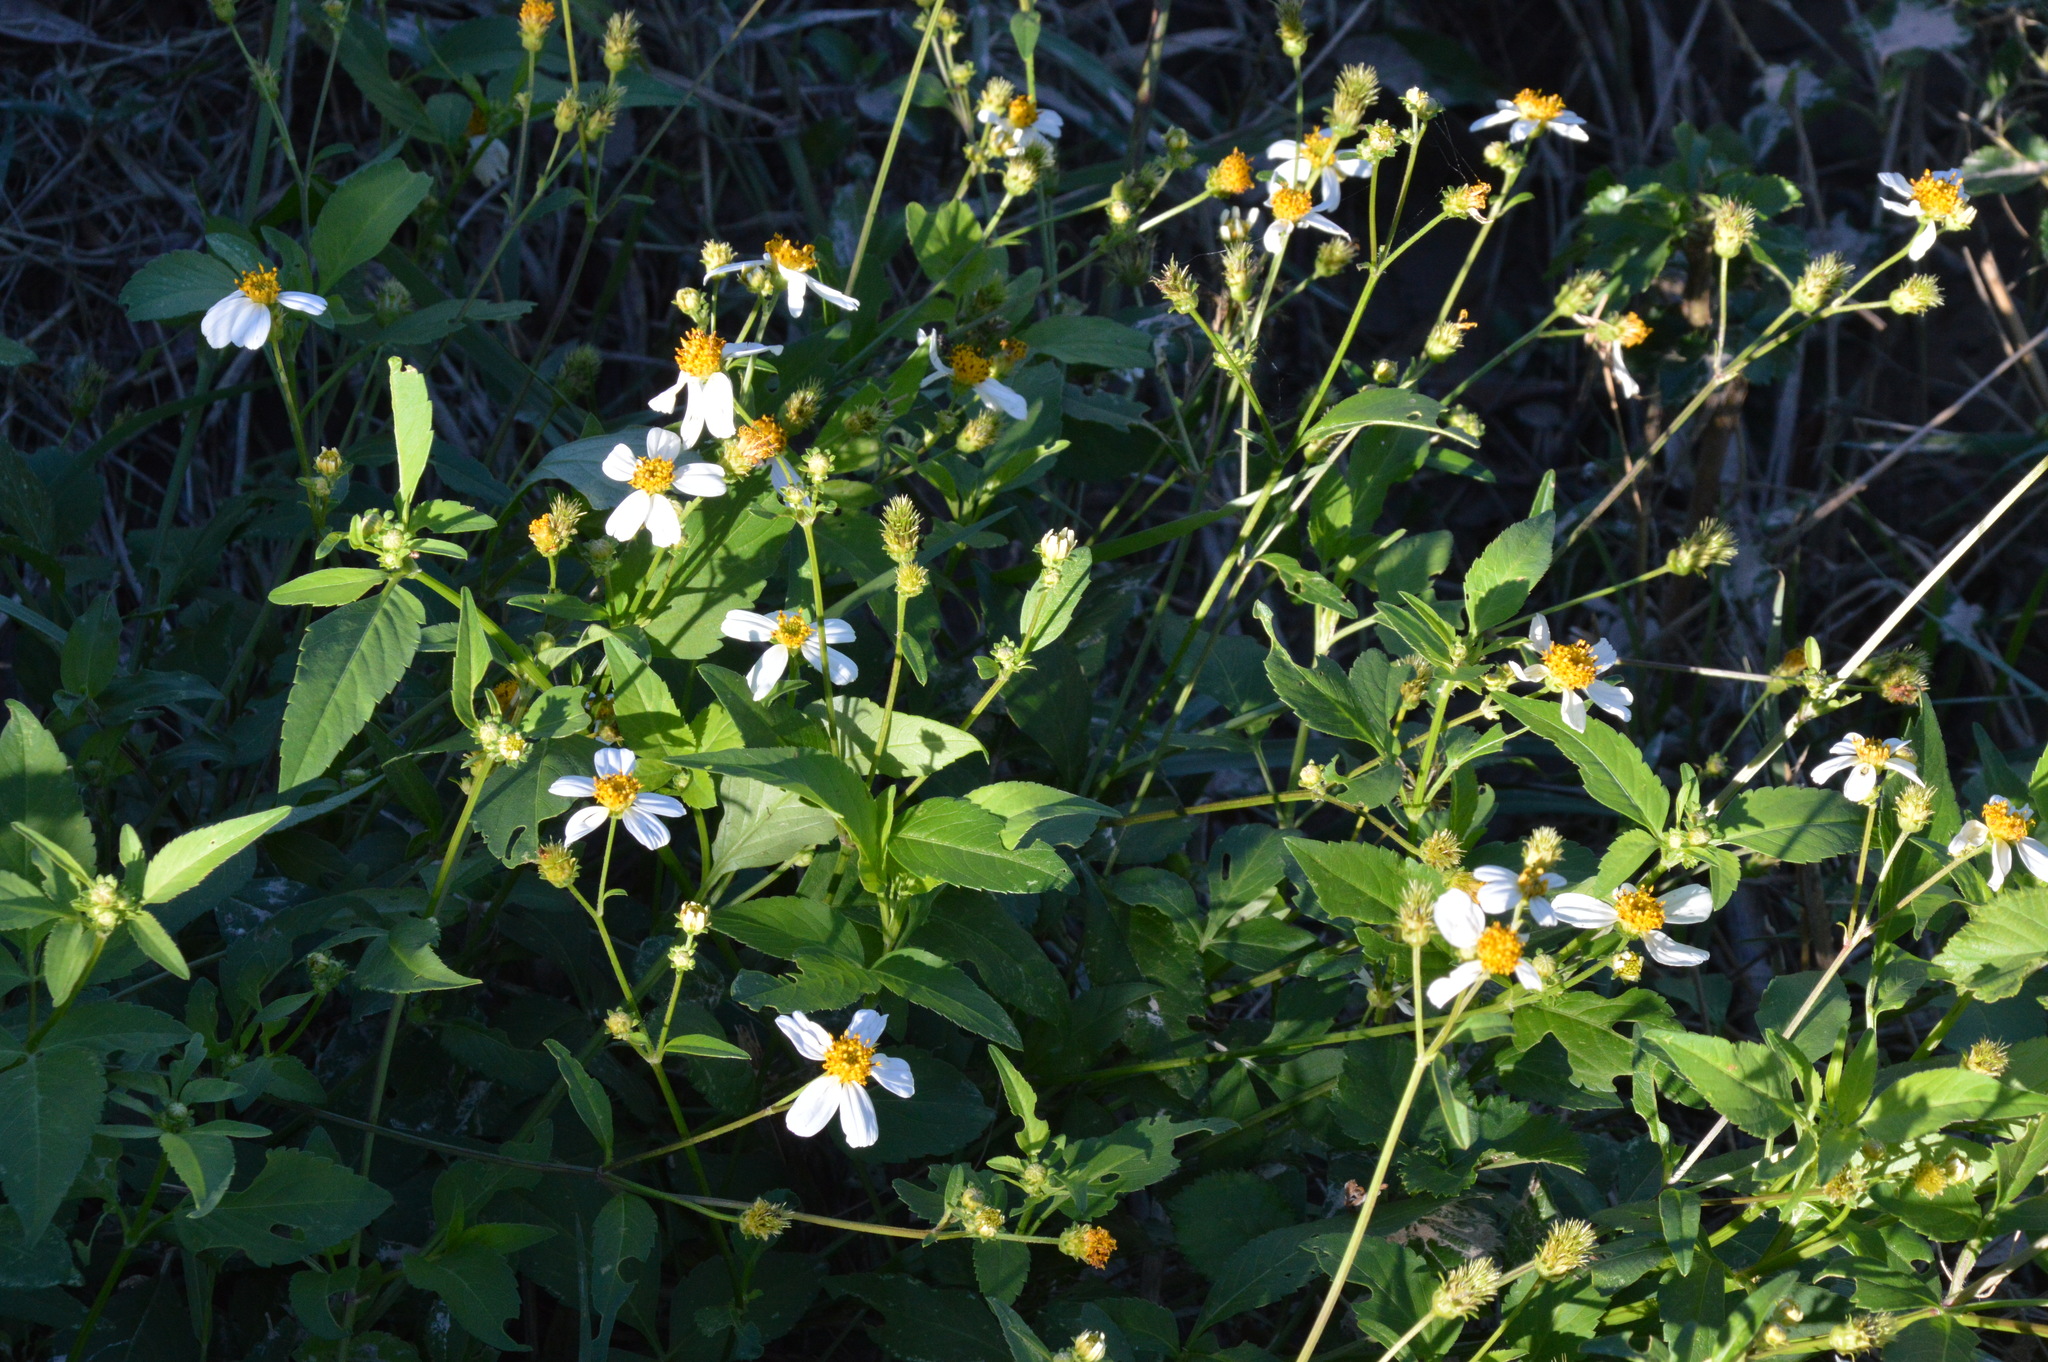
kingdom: Plantae
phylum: Tracheophyta
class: Magnoliopsida
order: Asterales
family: Asteraceae
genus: Bidens
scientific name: Bidens alba
